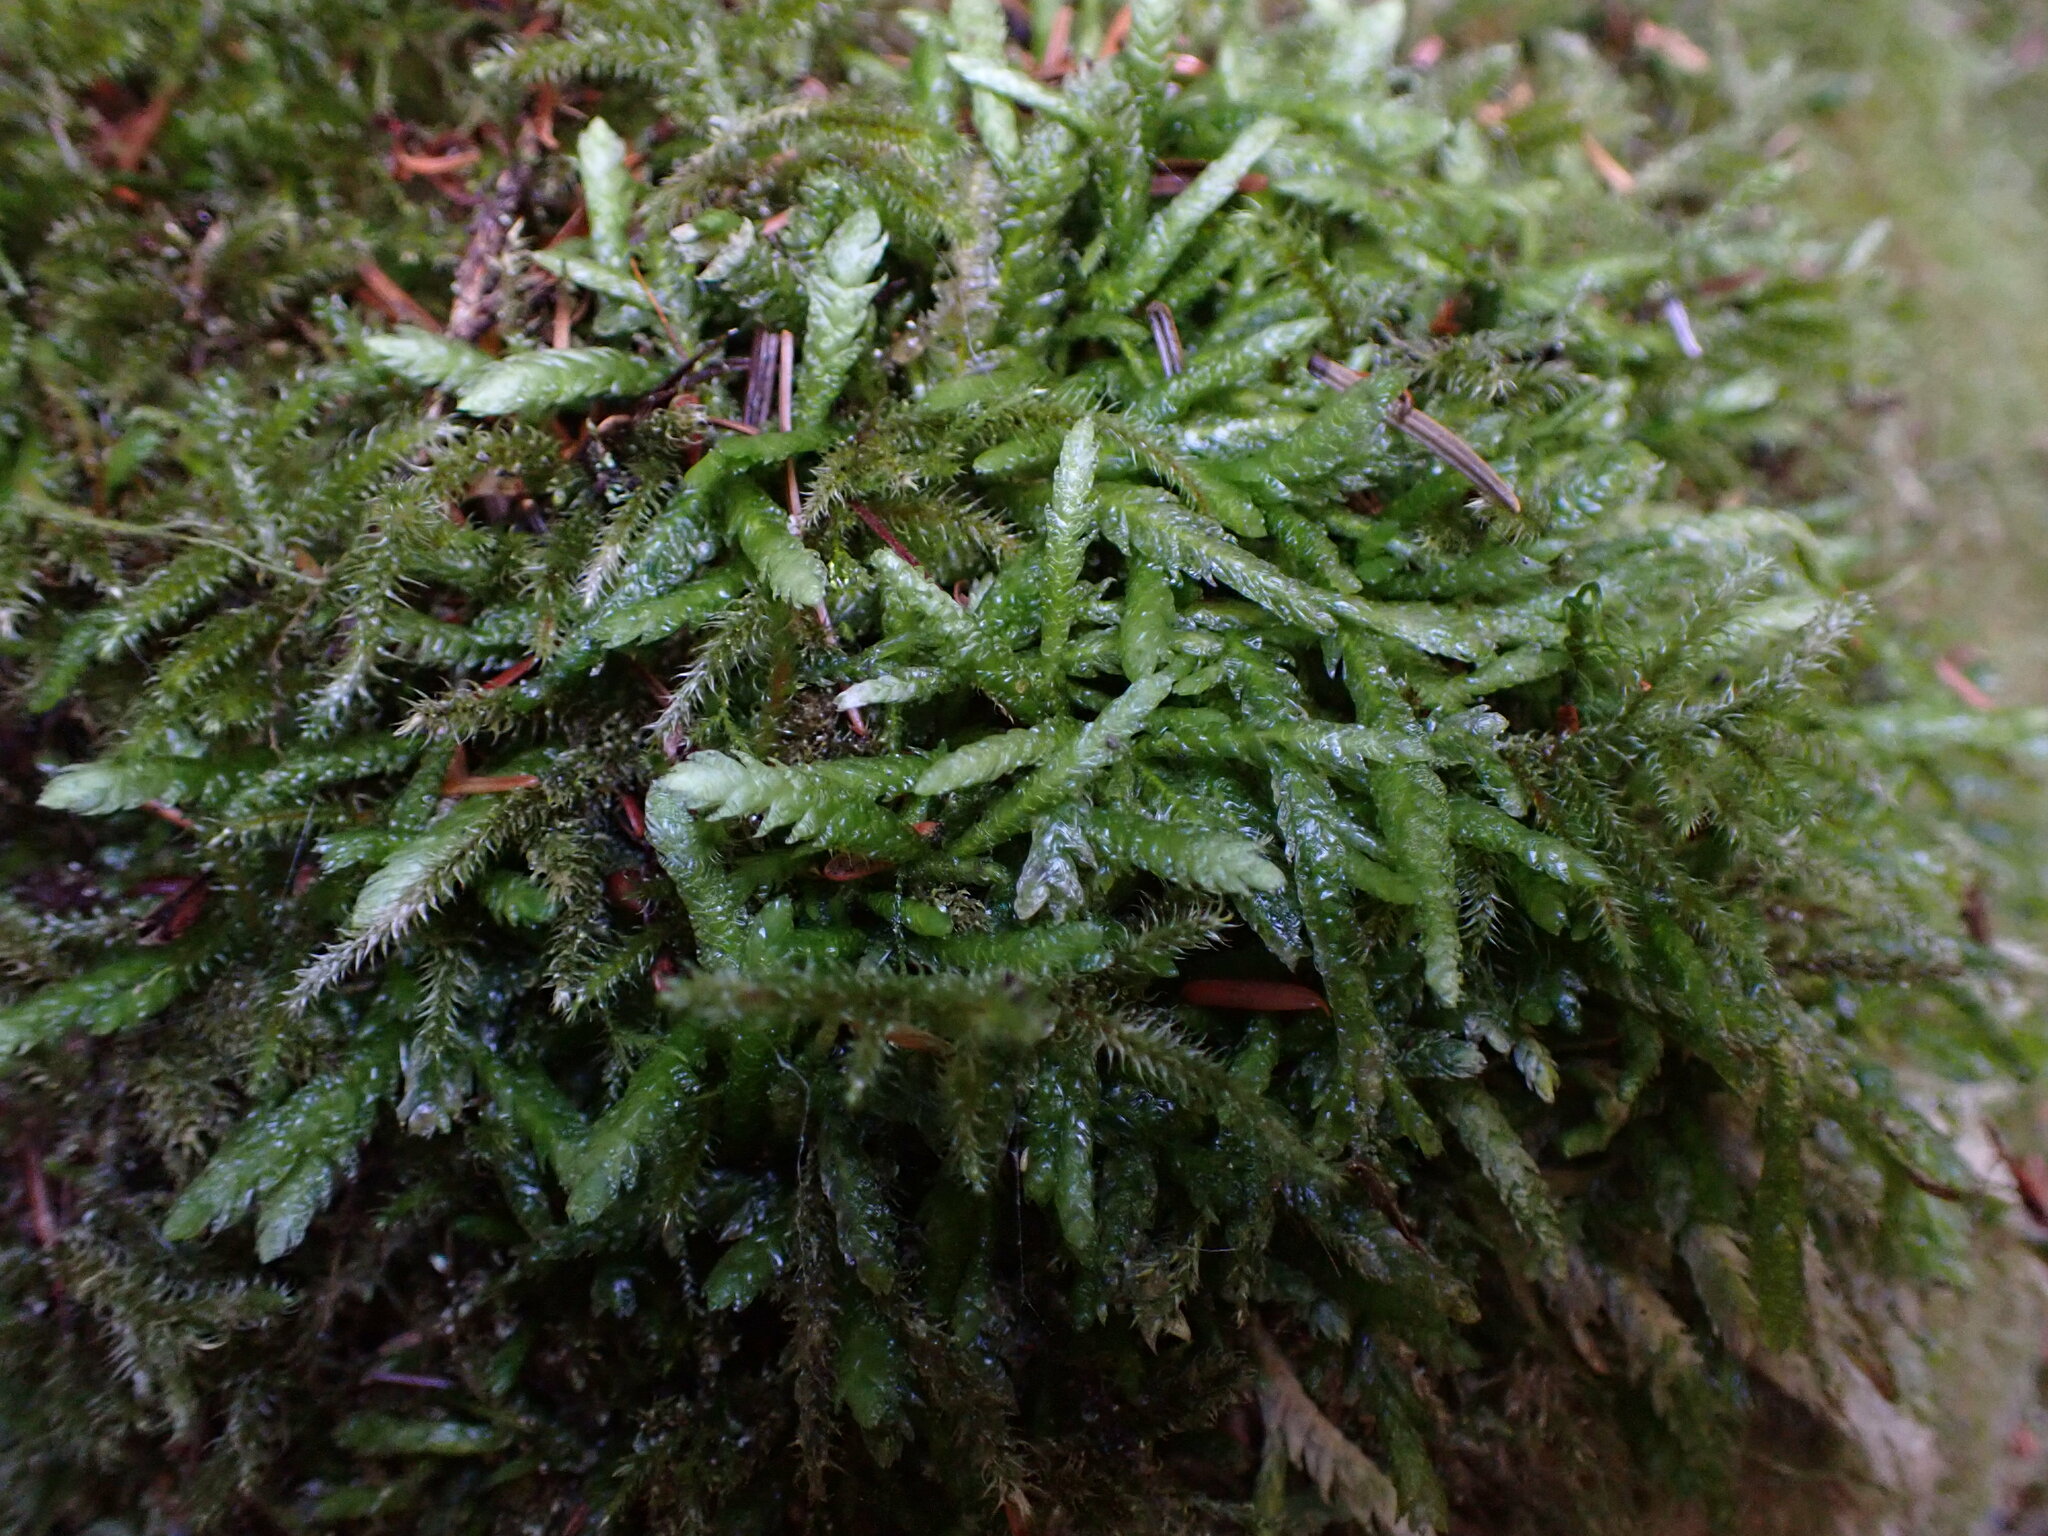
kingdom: Plantae
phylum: Bryophyta
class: Bryopsida
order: Hypnales
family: Plagiotheciaceae
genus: Plagiothecium
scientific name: Plagiothecium undulatum
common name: Waved silk-moss
